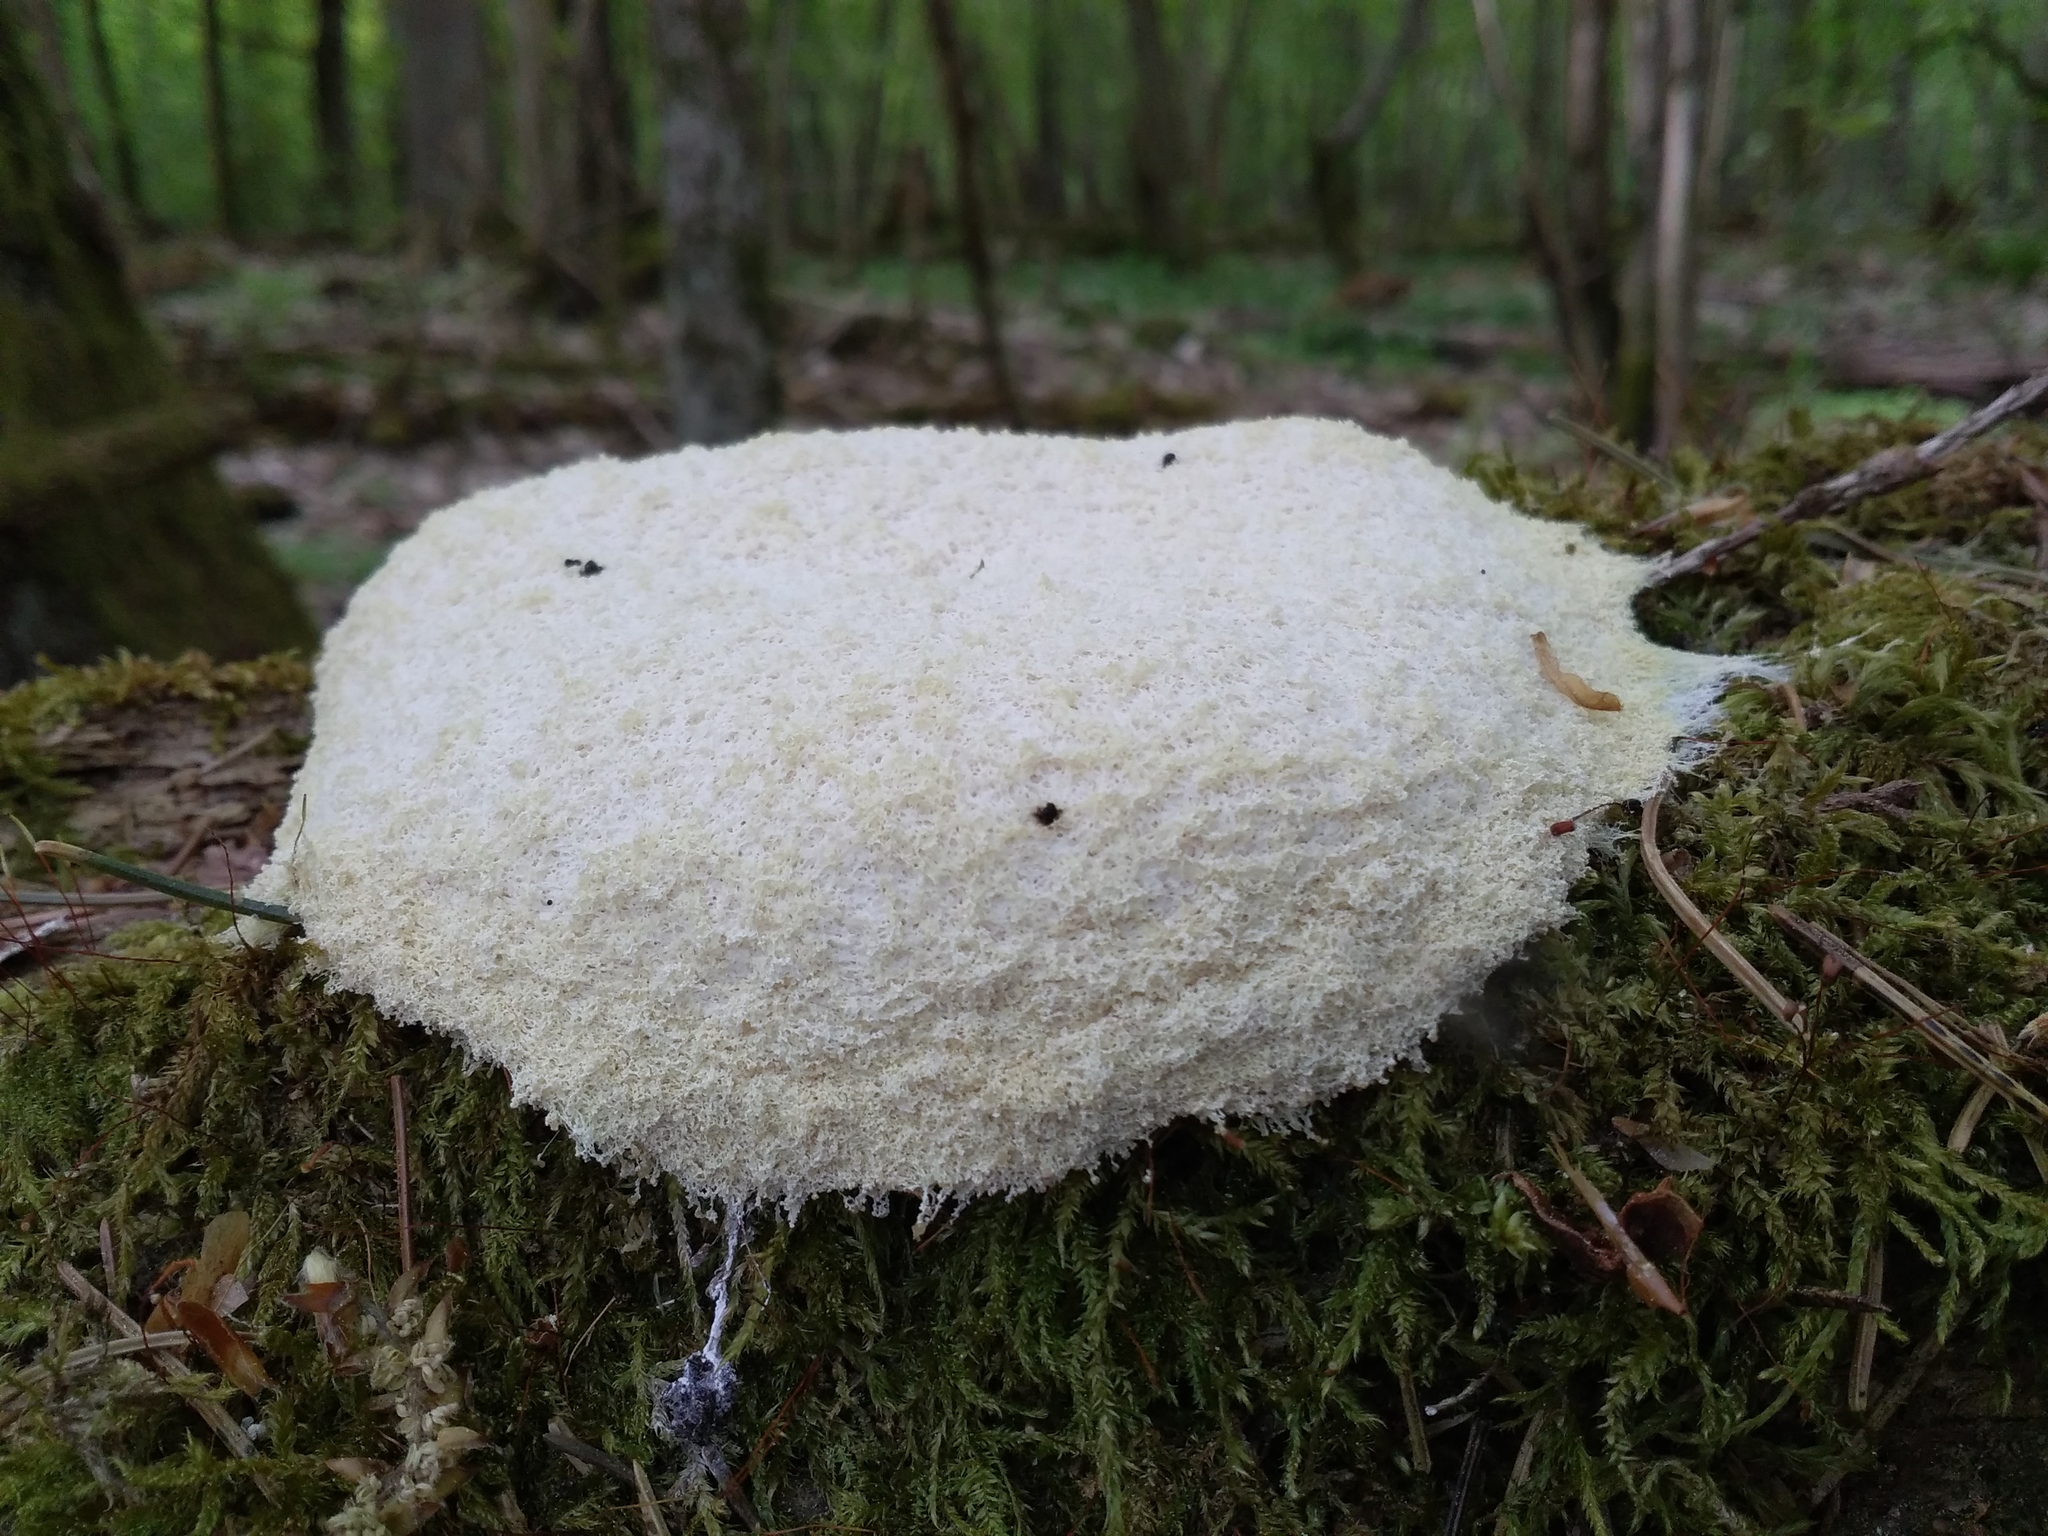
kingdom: Protozoa
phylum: Mycetozoa
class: Myxomycetes
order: Physarales
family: Physaraceae
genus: Fuligo
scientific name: Fuligo septica
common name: Dog vomit slime mold
